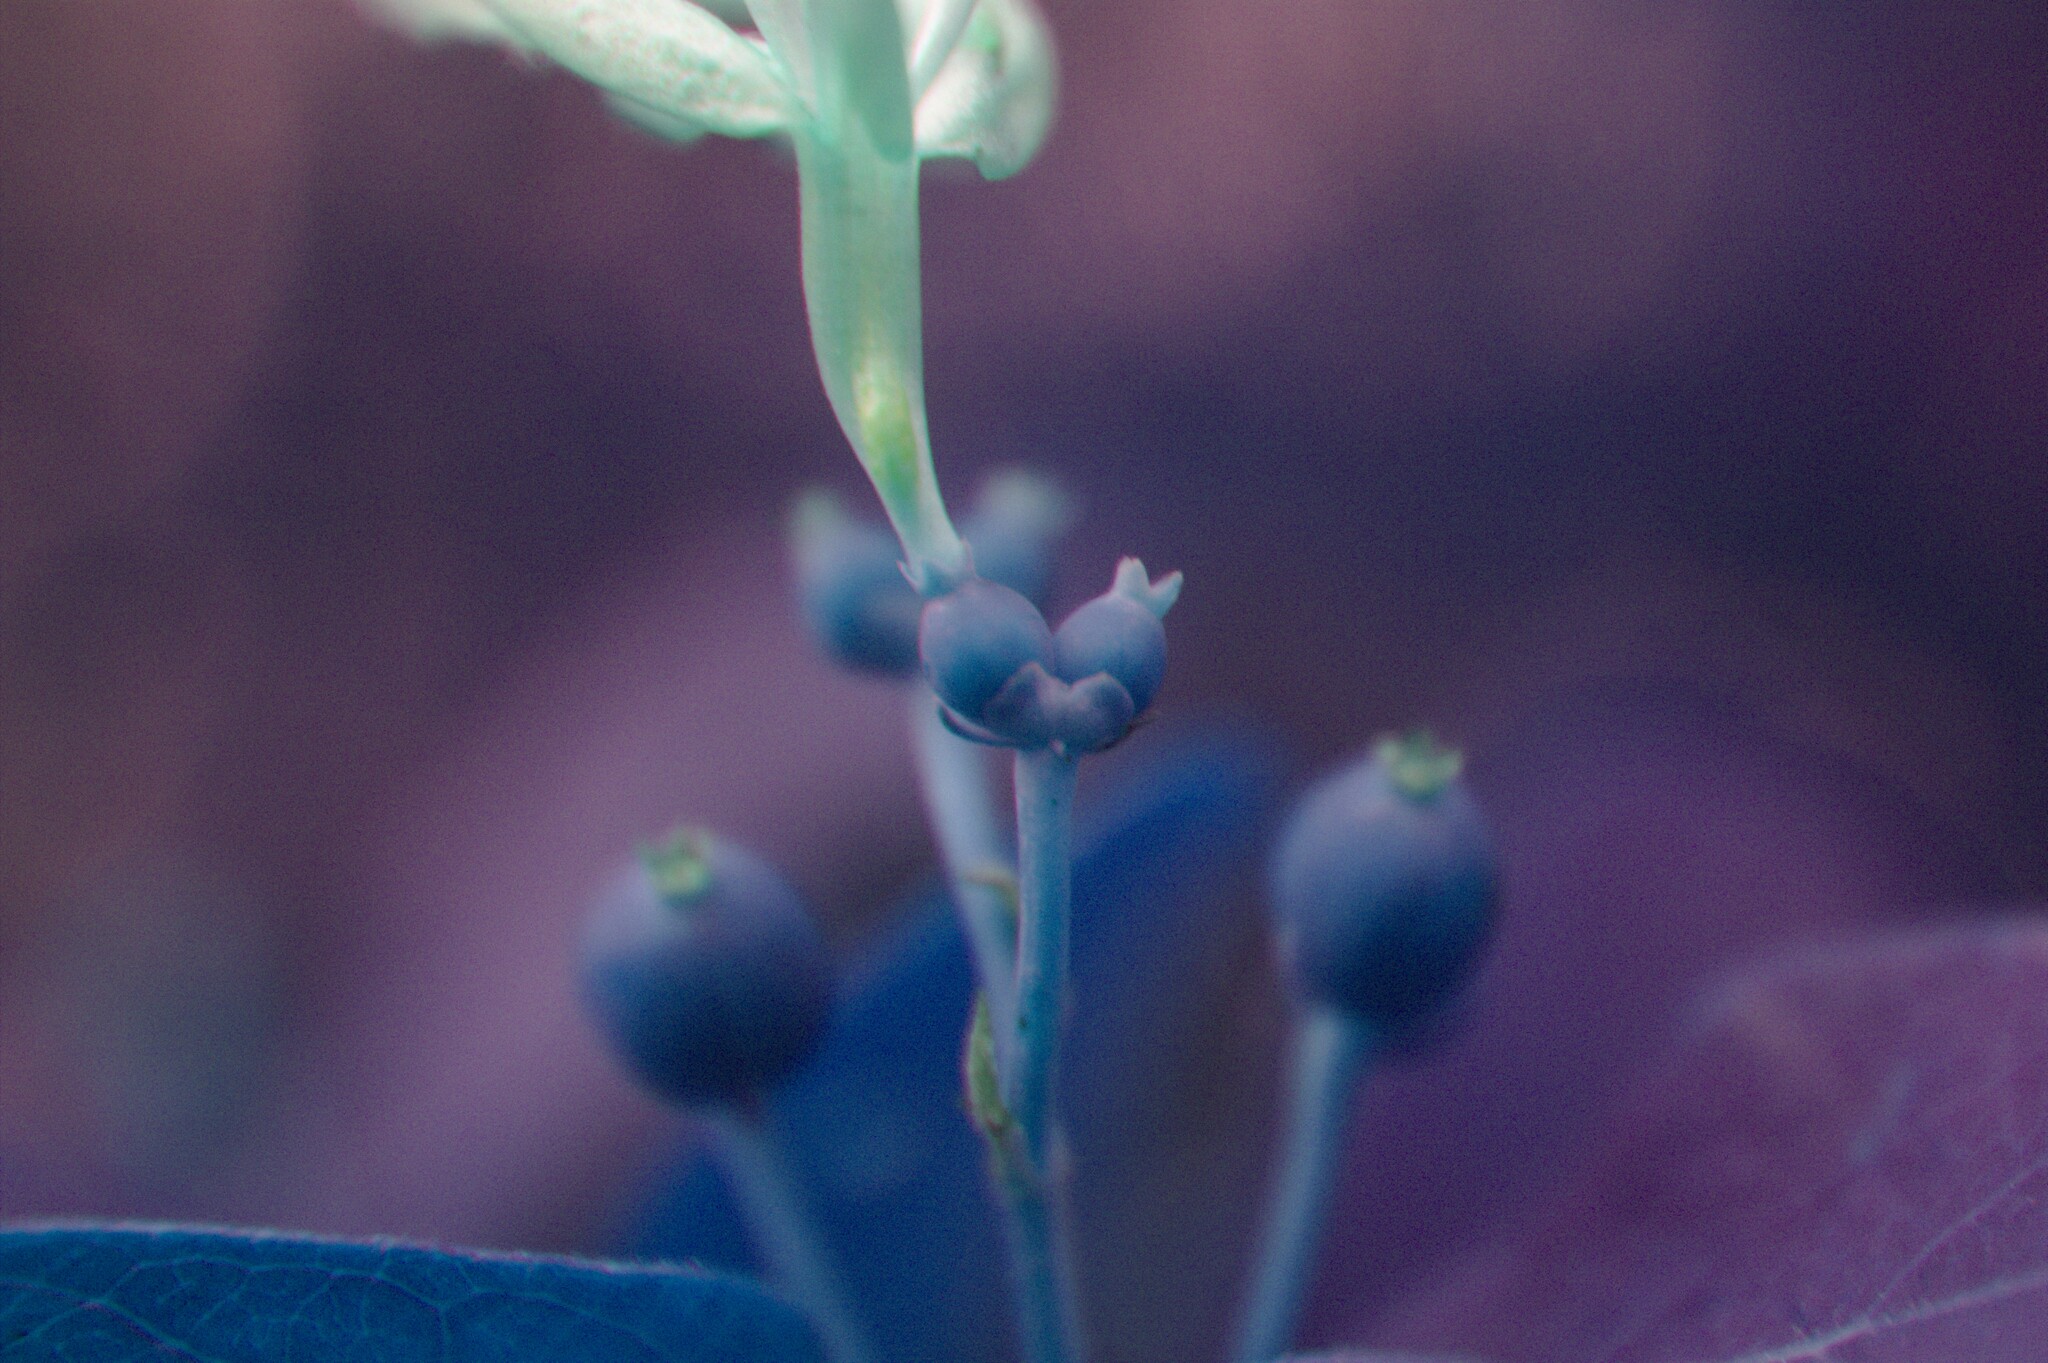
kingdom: Plantae
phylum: Tracheophyta
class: Magnoliopsida
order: Dipsacales
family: Caprifoliaceae
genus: Lonicera
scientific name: Lonicera tatarica
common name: Tatarian honeysuckle
